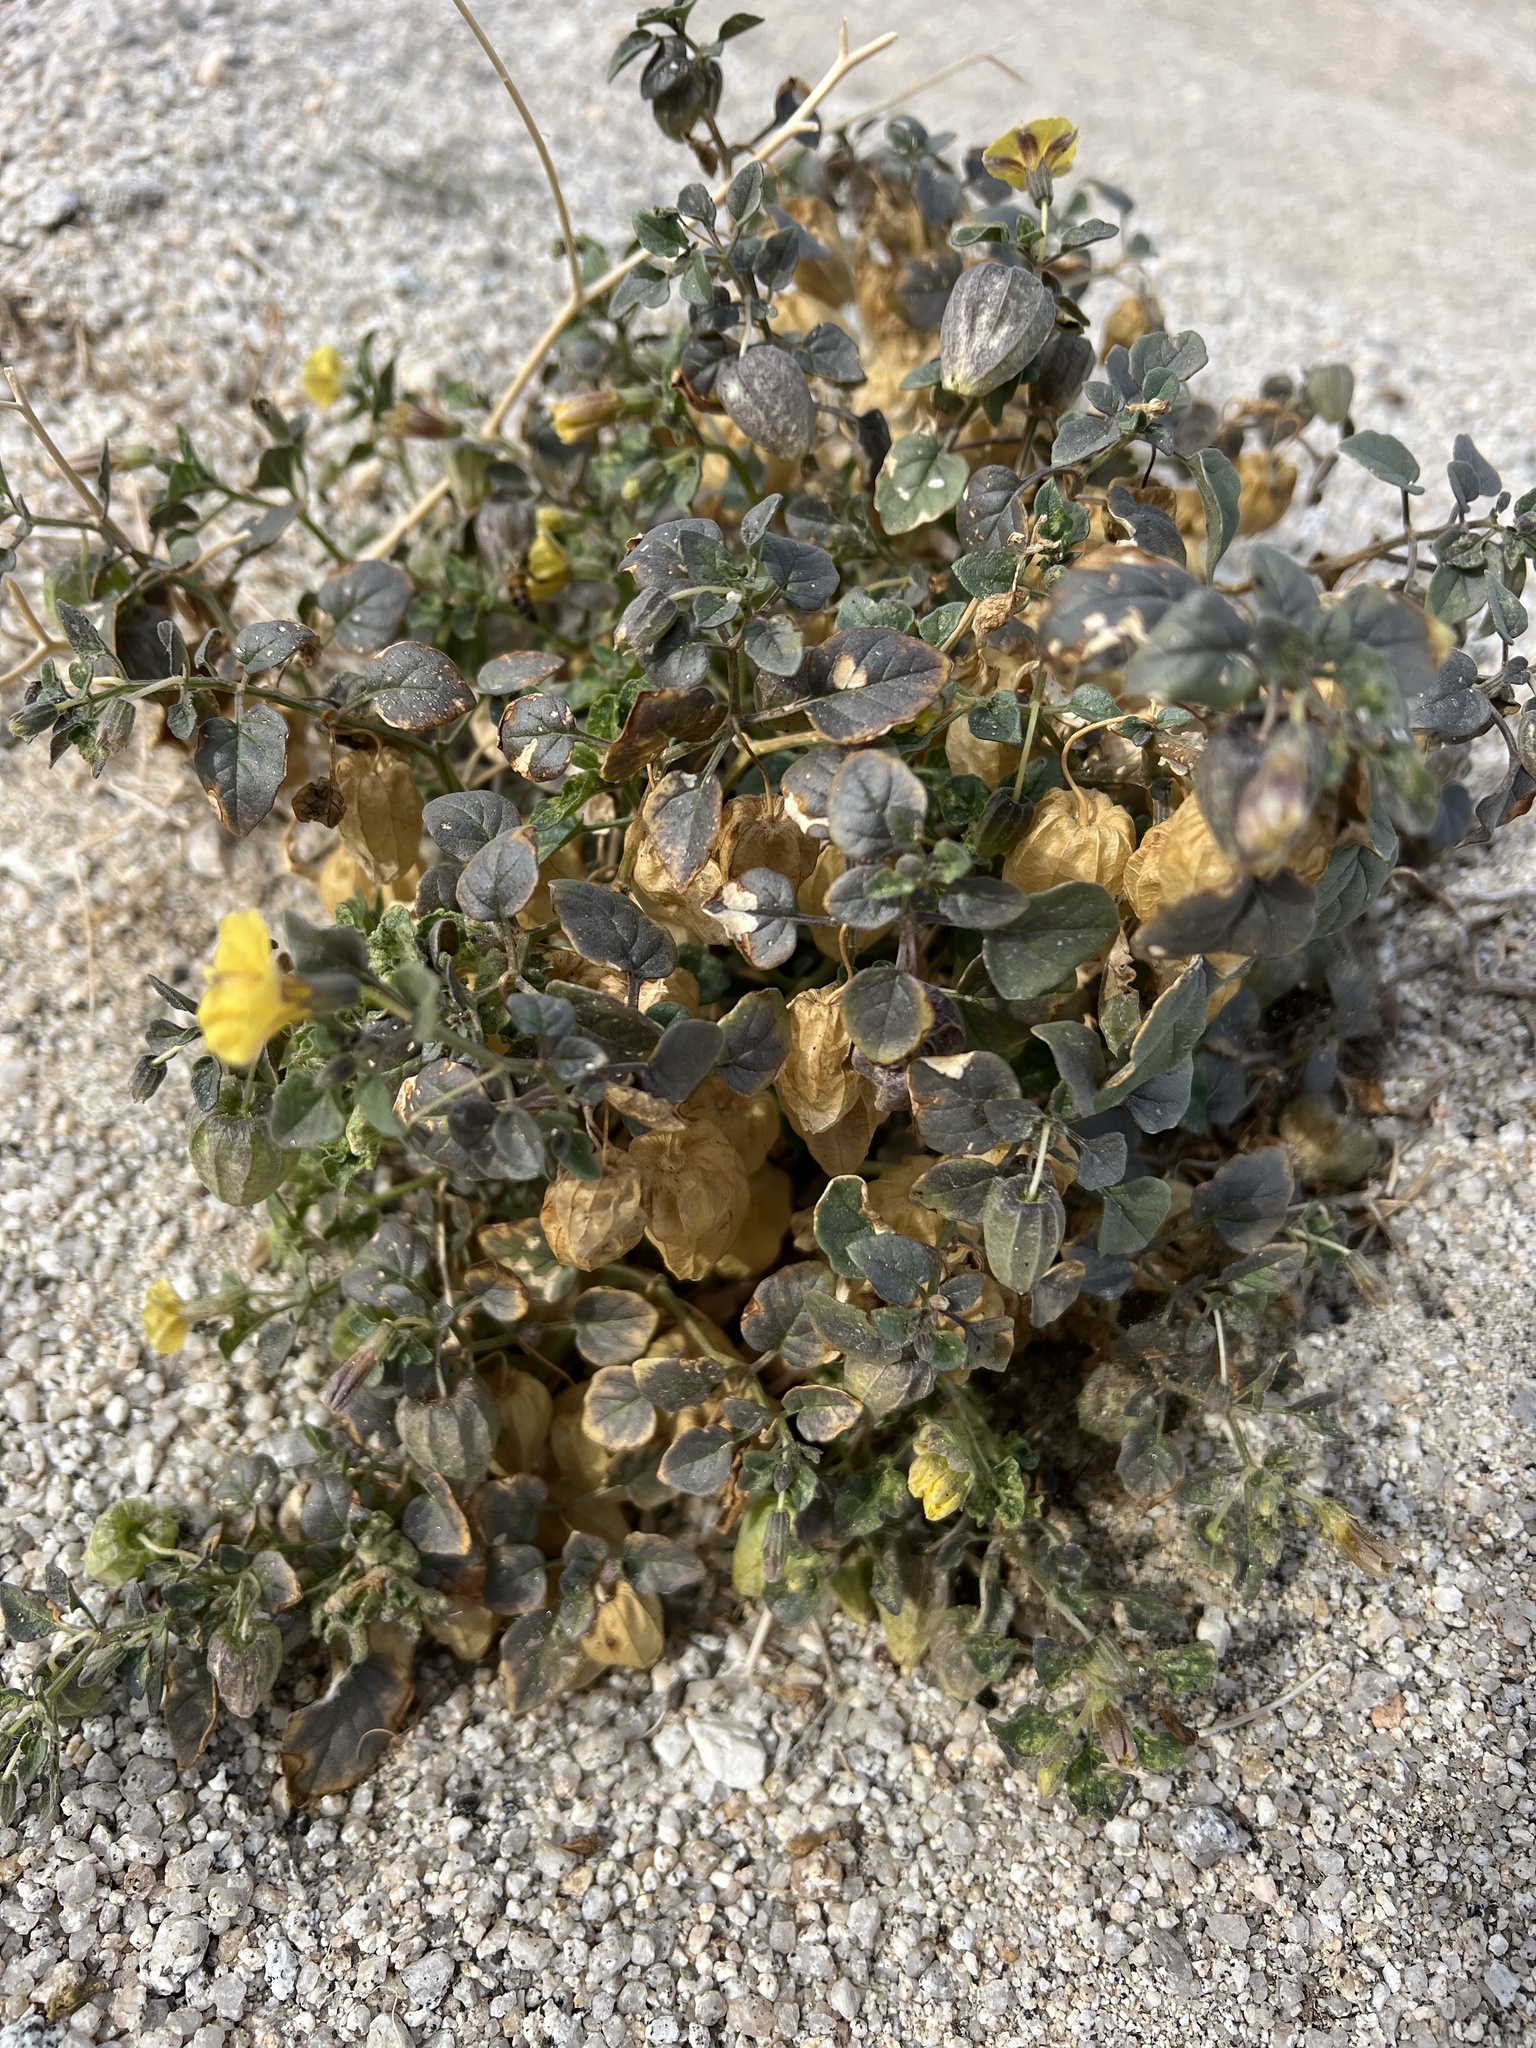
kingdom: Plantae
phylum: Tracheophyta
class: Magnoliopsida
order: Solanales
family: Solanaceae
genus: Physalis
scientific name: Physalis crassifolia
